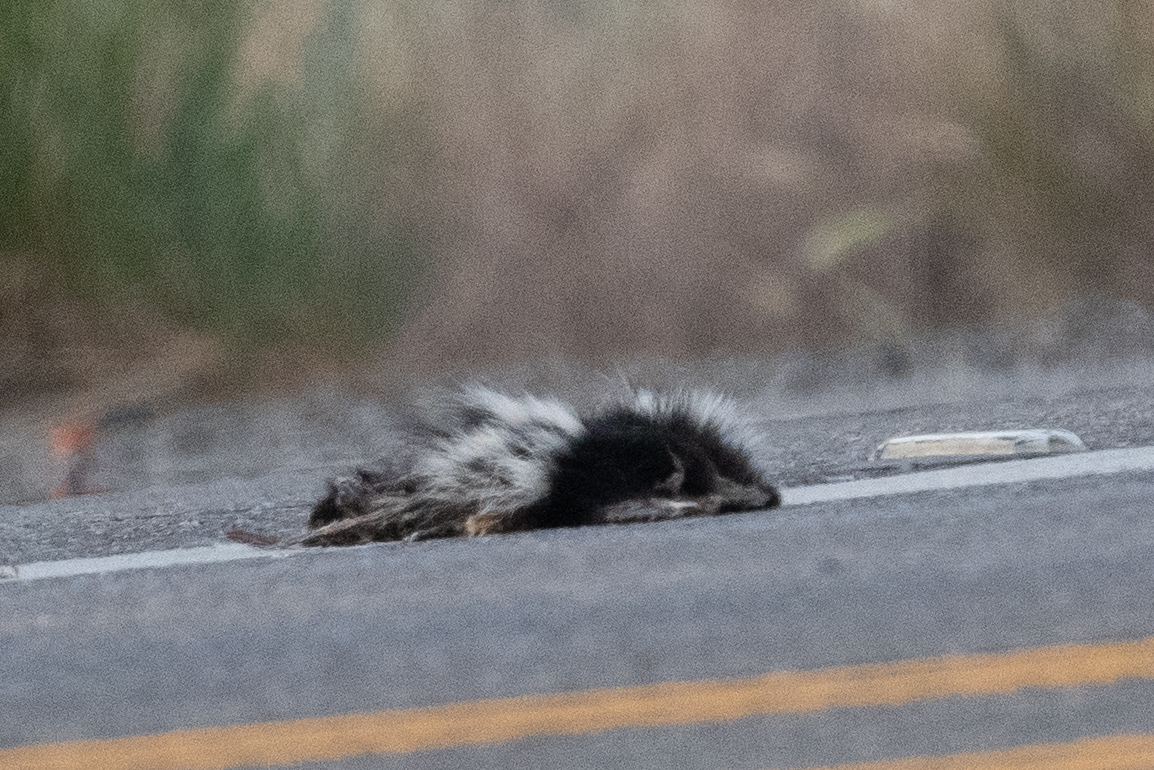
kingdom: Animalia
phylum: Chordata
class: Mammalia
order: Carnivora
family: Mephitidae
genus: Mephitis
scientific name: Mephitis mephitis
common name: Striped skunk
